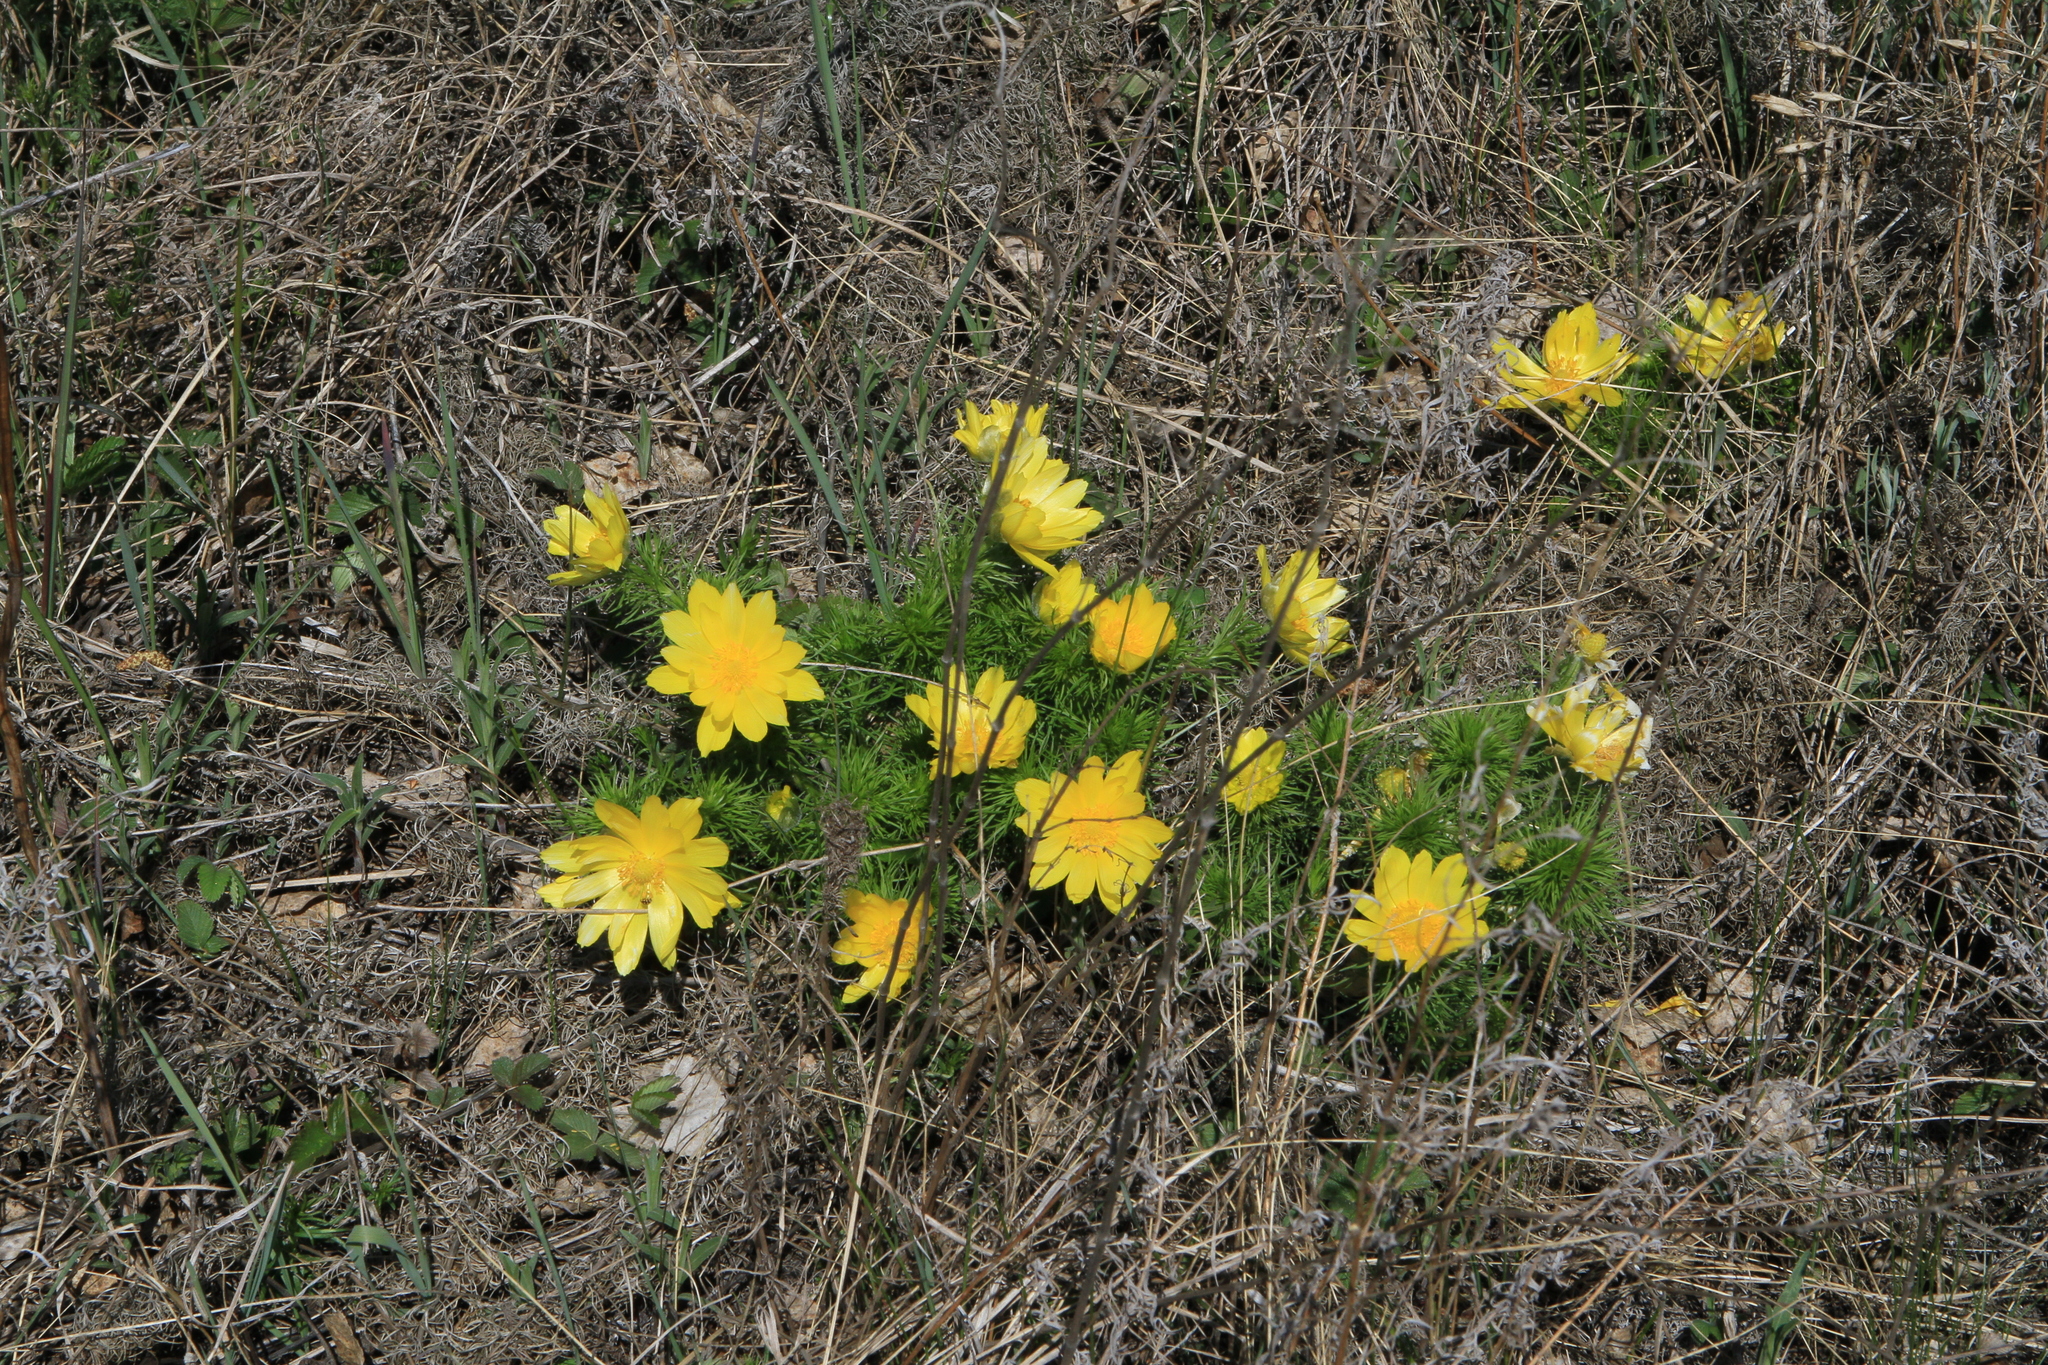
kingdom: Plantae
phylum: Tracheophyta
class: Magnoliopsida
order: Ranunculales
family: Ranunculaceae
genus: Adonis
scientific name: Adonis vernalis
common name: Yellow pheasants-eye
